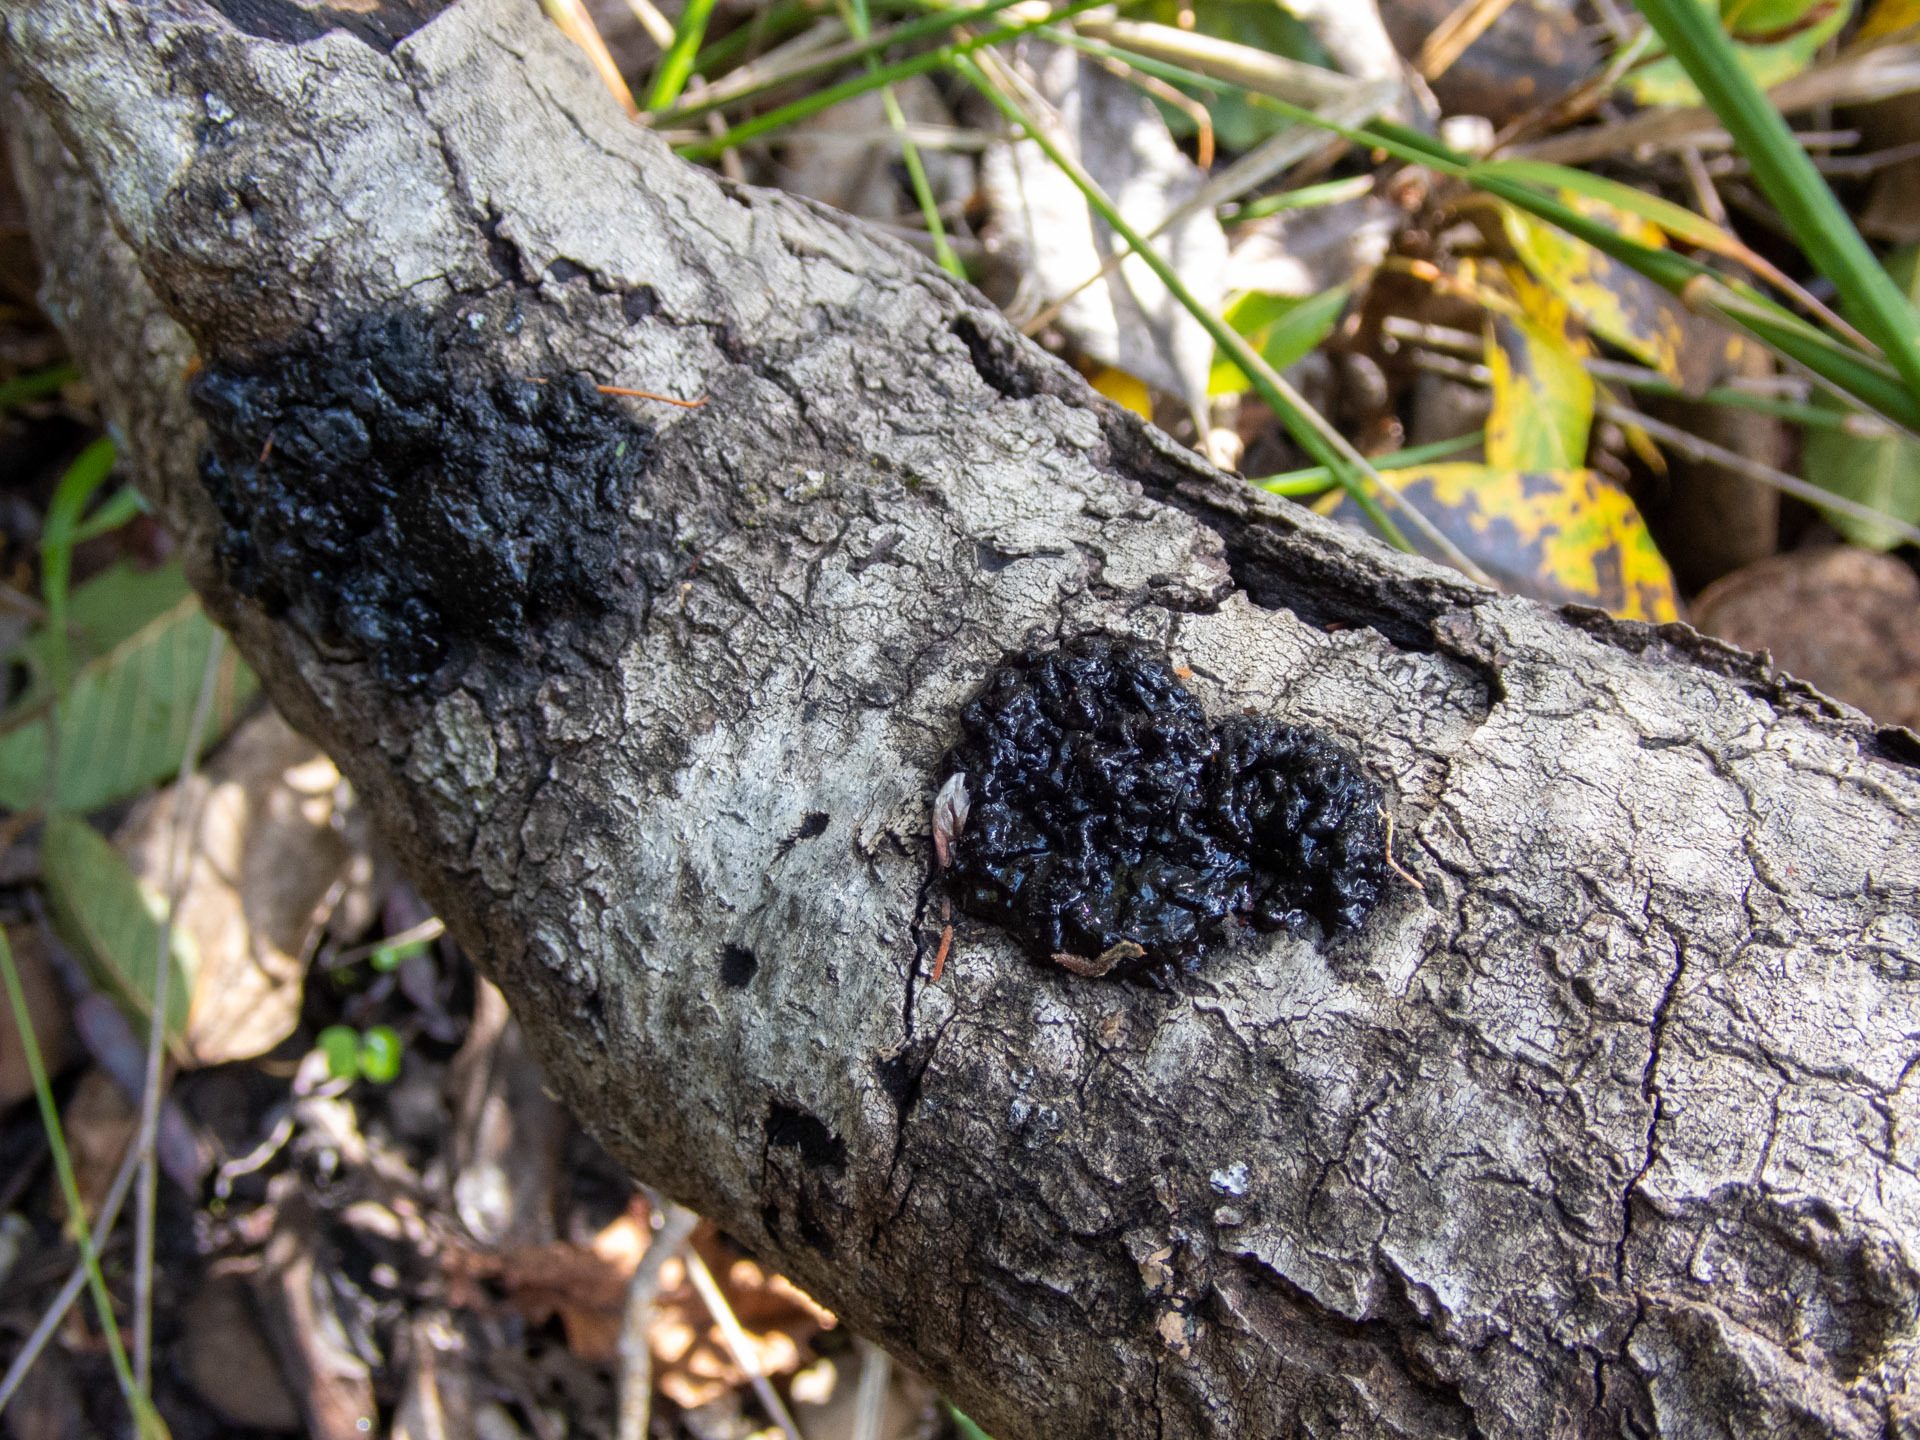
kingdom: Fungi
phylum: Basidiomycota
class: Agaricomycetes
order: Auriculariales
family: Auriculariaceae
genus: Exidia
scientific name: Exidia glandulosa
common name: Witches' butter
